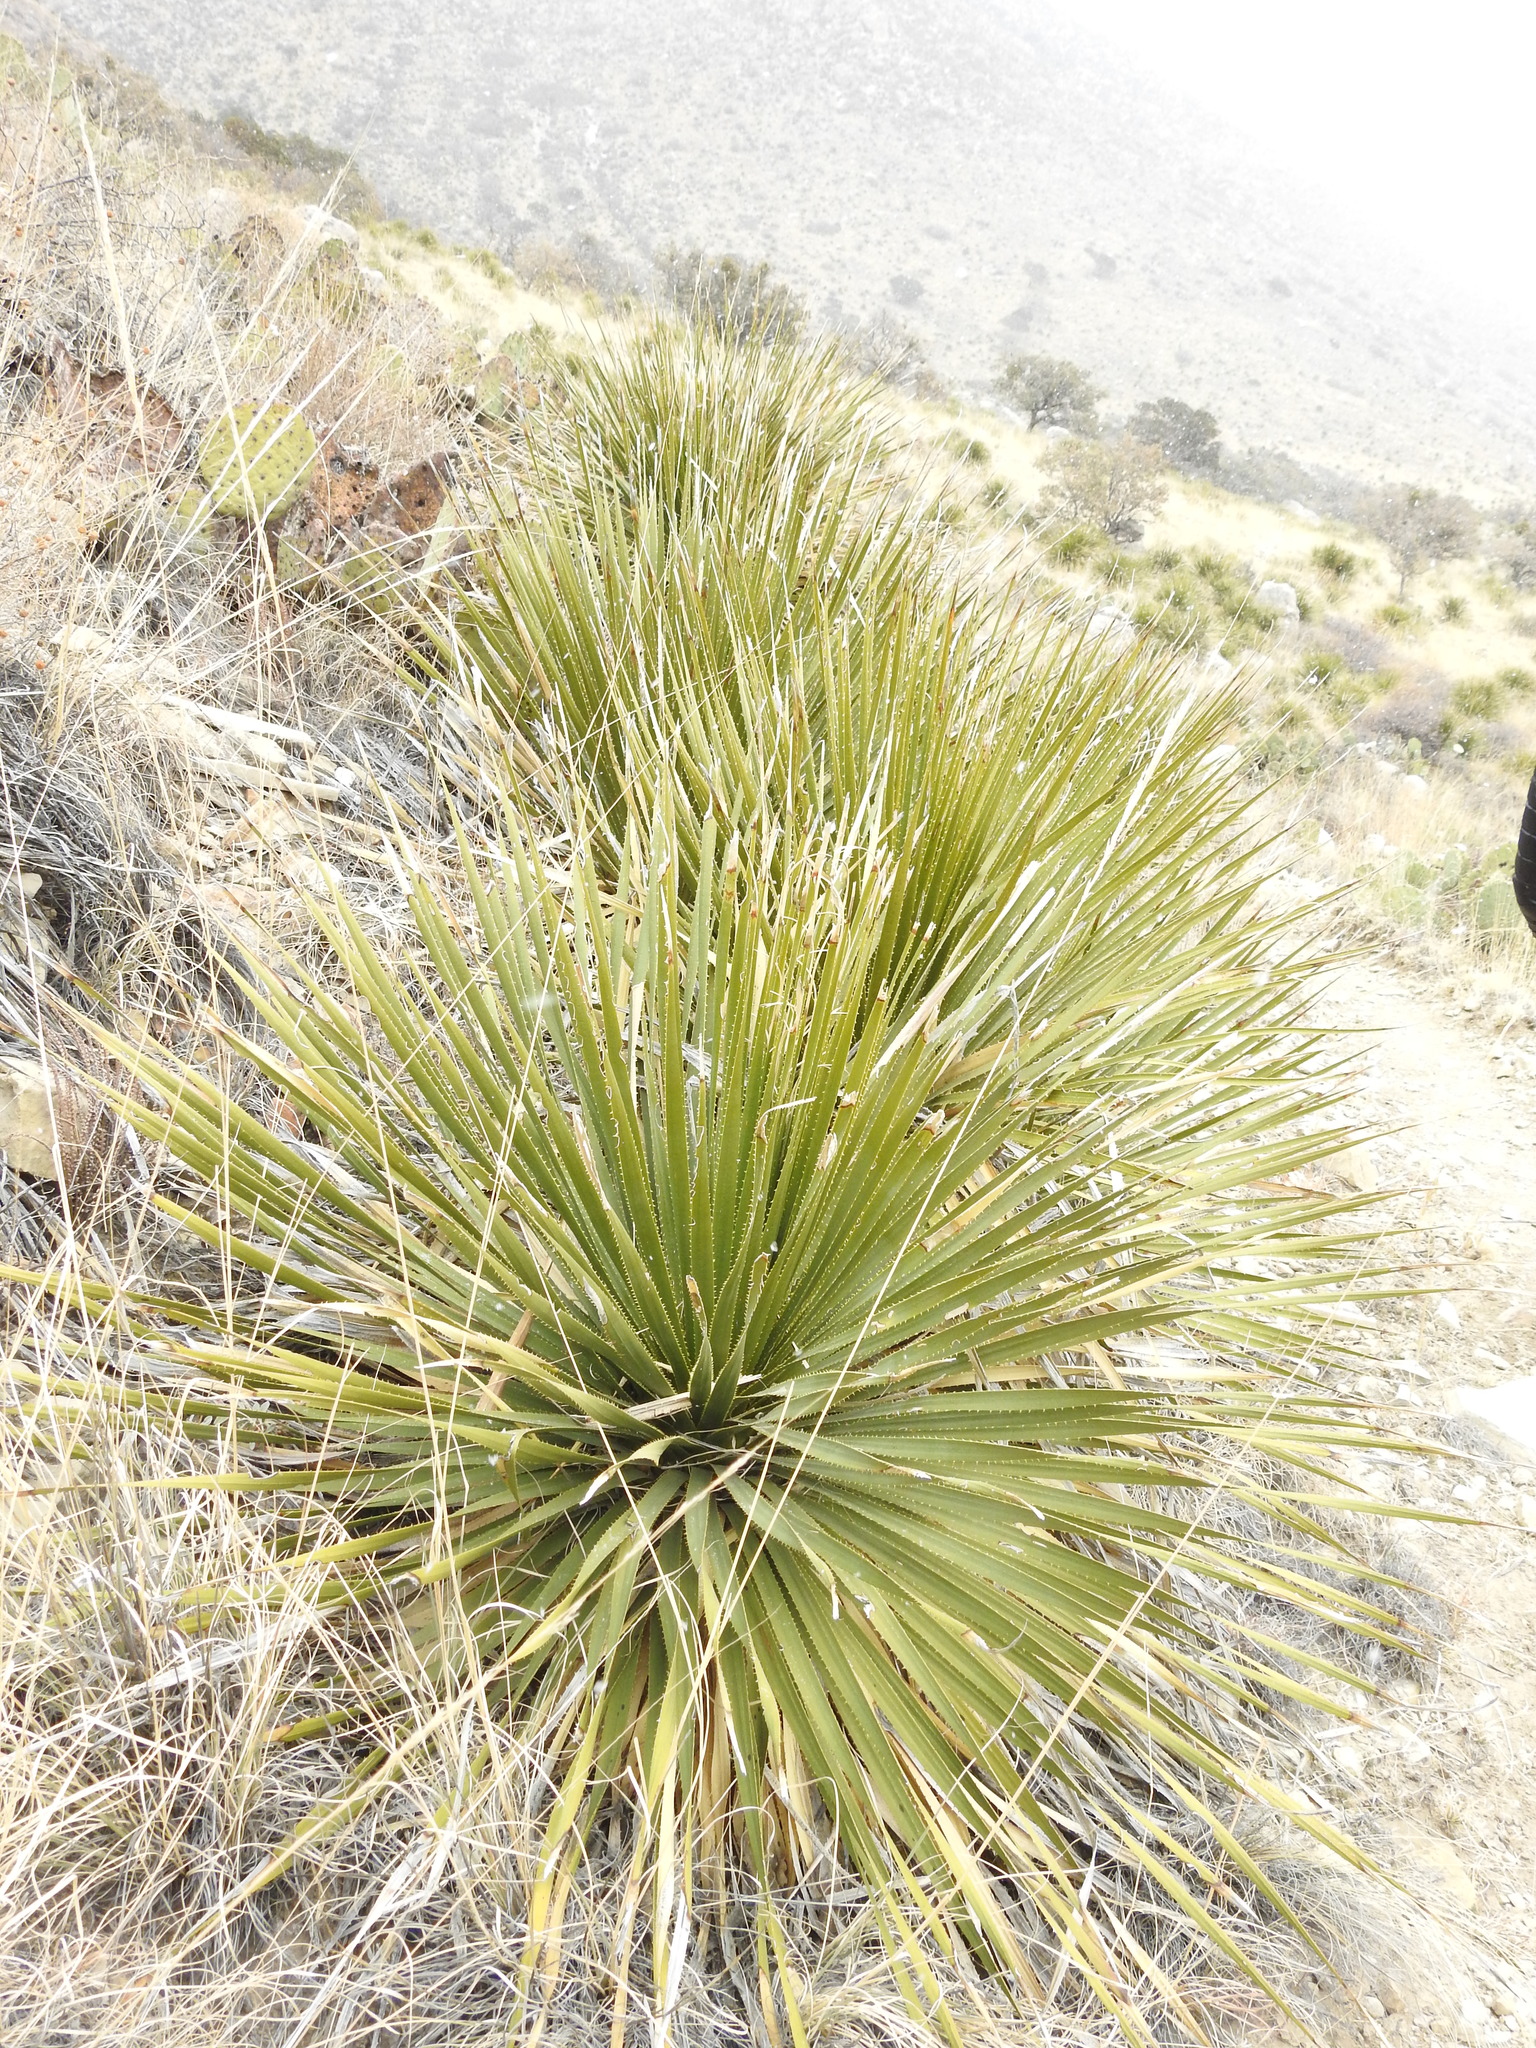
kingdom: Plantae
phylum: Tracheophyta
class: Liliopsida
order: Asparagales
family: Asparagaceae
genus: Dasylirion
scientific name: Dasylirion leiophyllum
